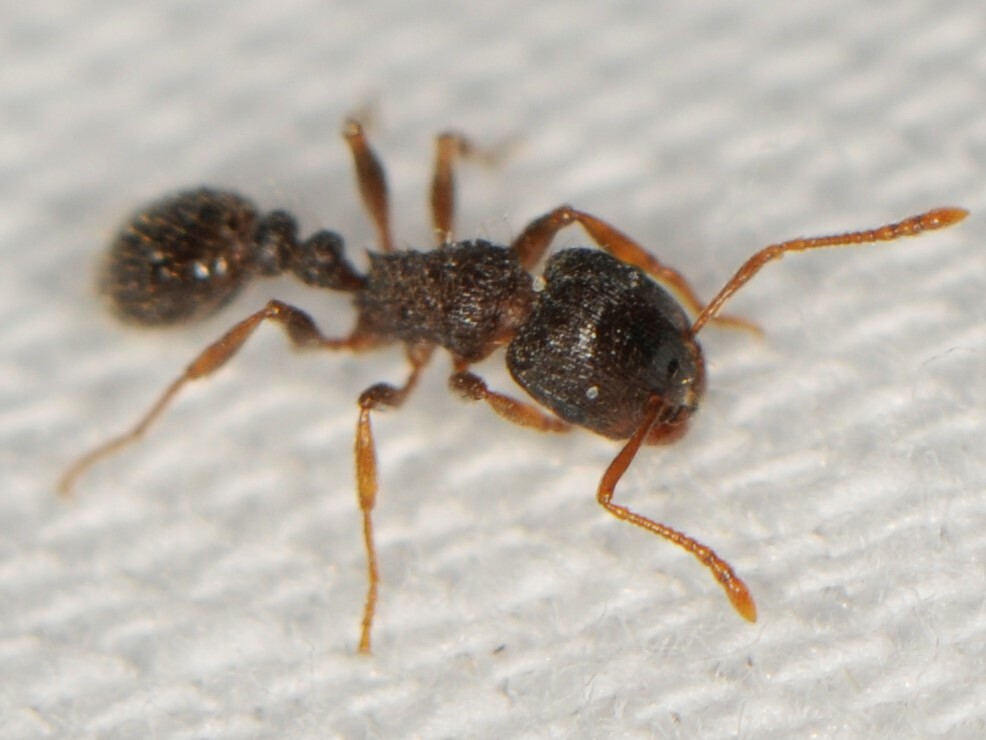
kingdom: Animalia
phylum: Arthropoda
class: Insecta
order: Hymenoptera
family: Formicidae
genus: Tetramorium
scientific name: Tetramorium immigrans
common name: Pavement ant
